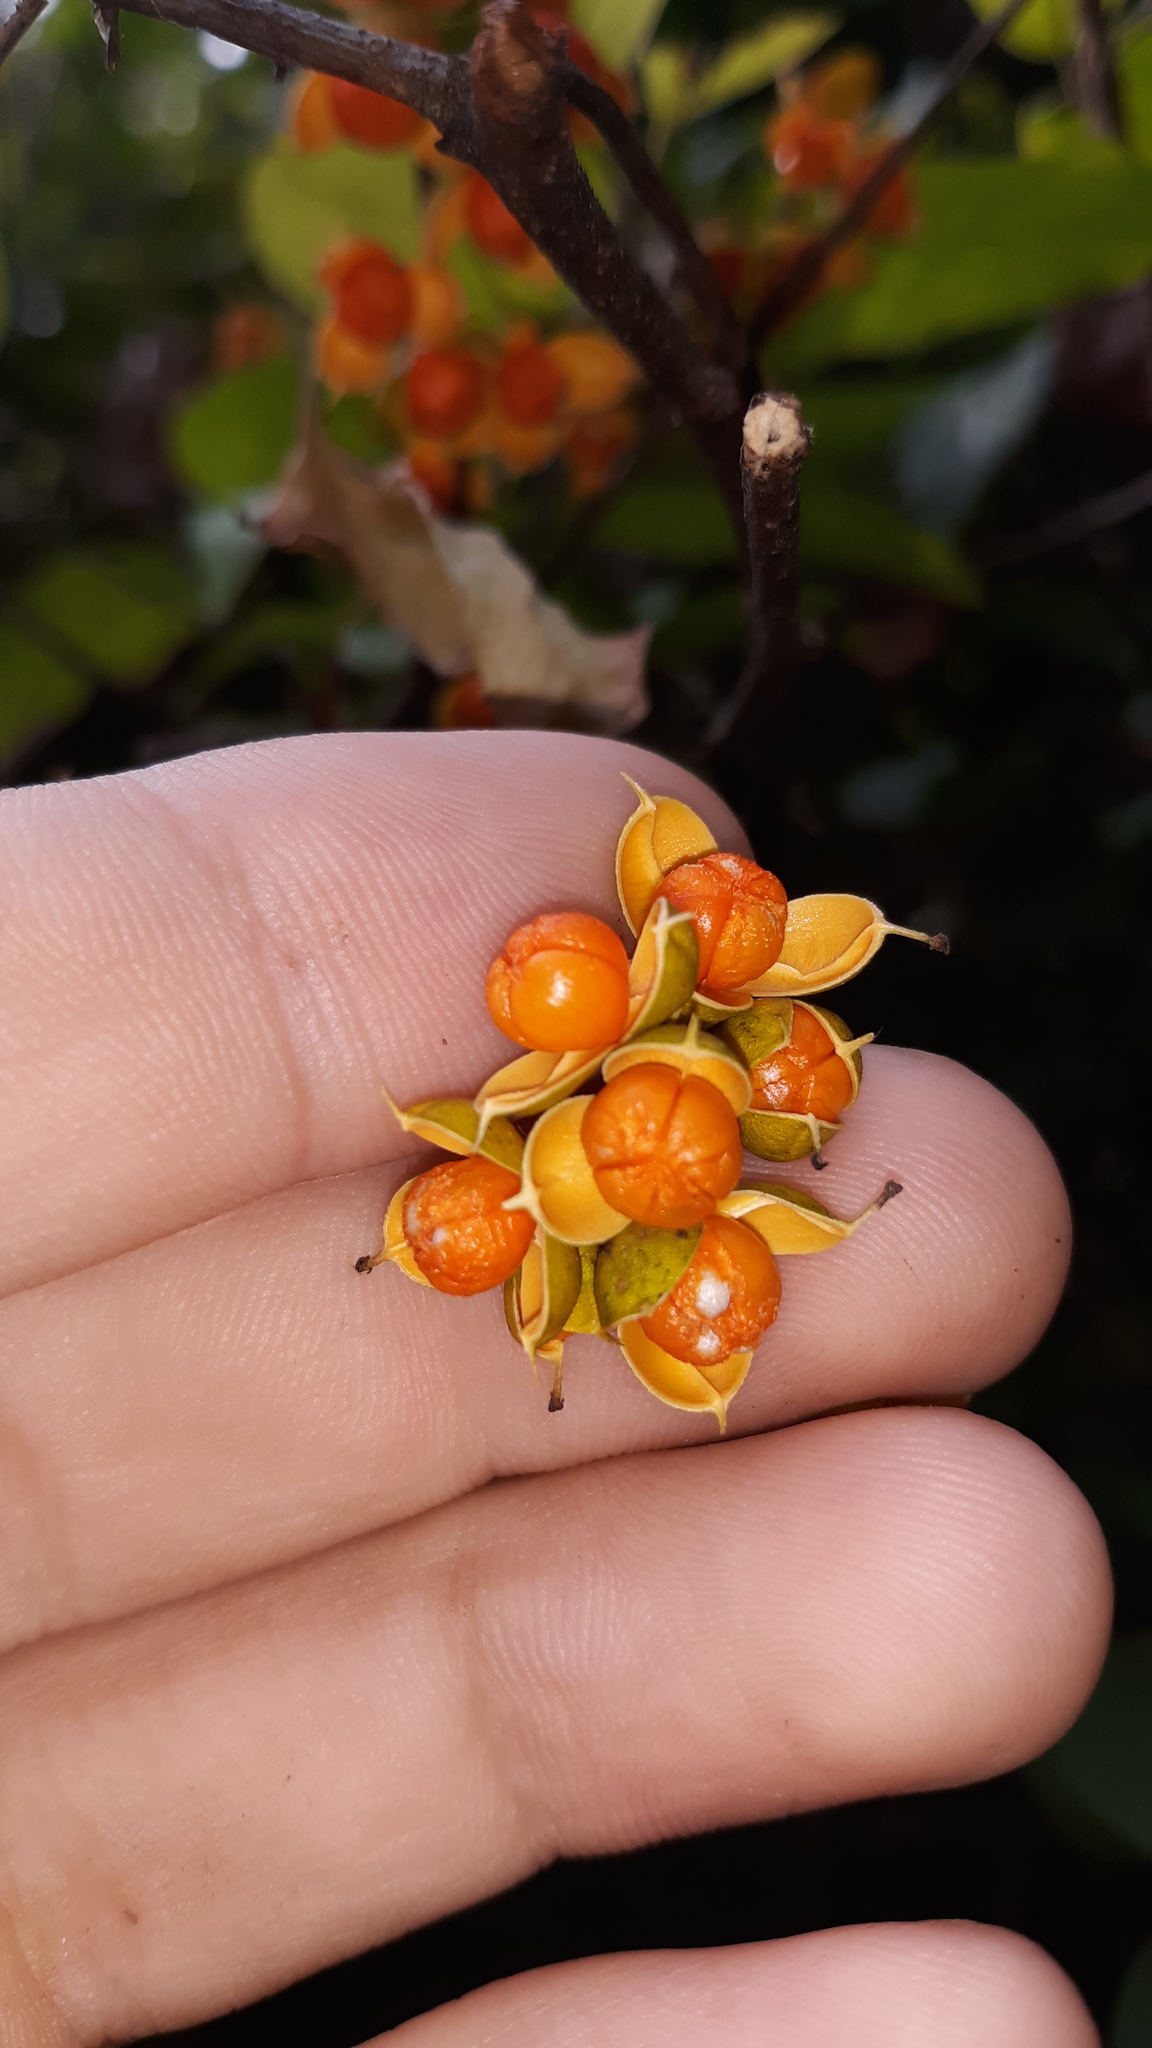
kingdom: Plantae
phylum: Tracheophyta
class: Magnoliopsida
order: Celastrales
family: Celastraceae
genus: Celastrus
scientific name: Celastrus orbiculatus
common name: Oriental bittersweet
